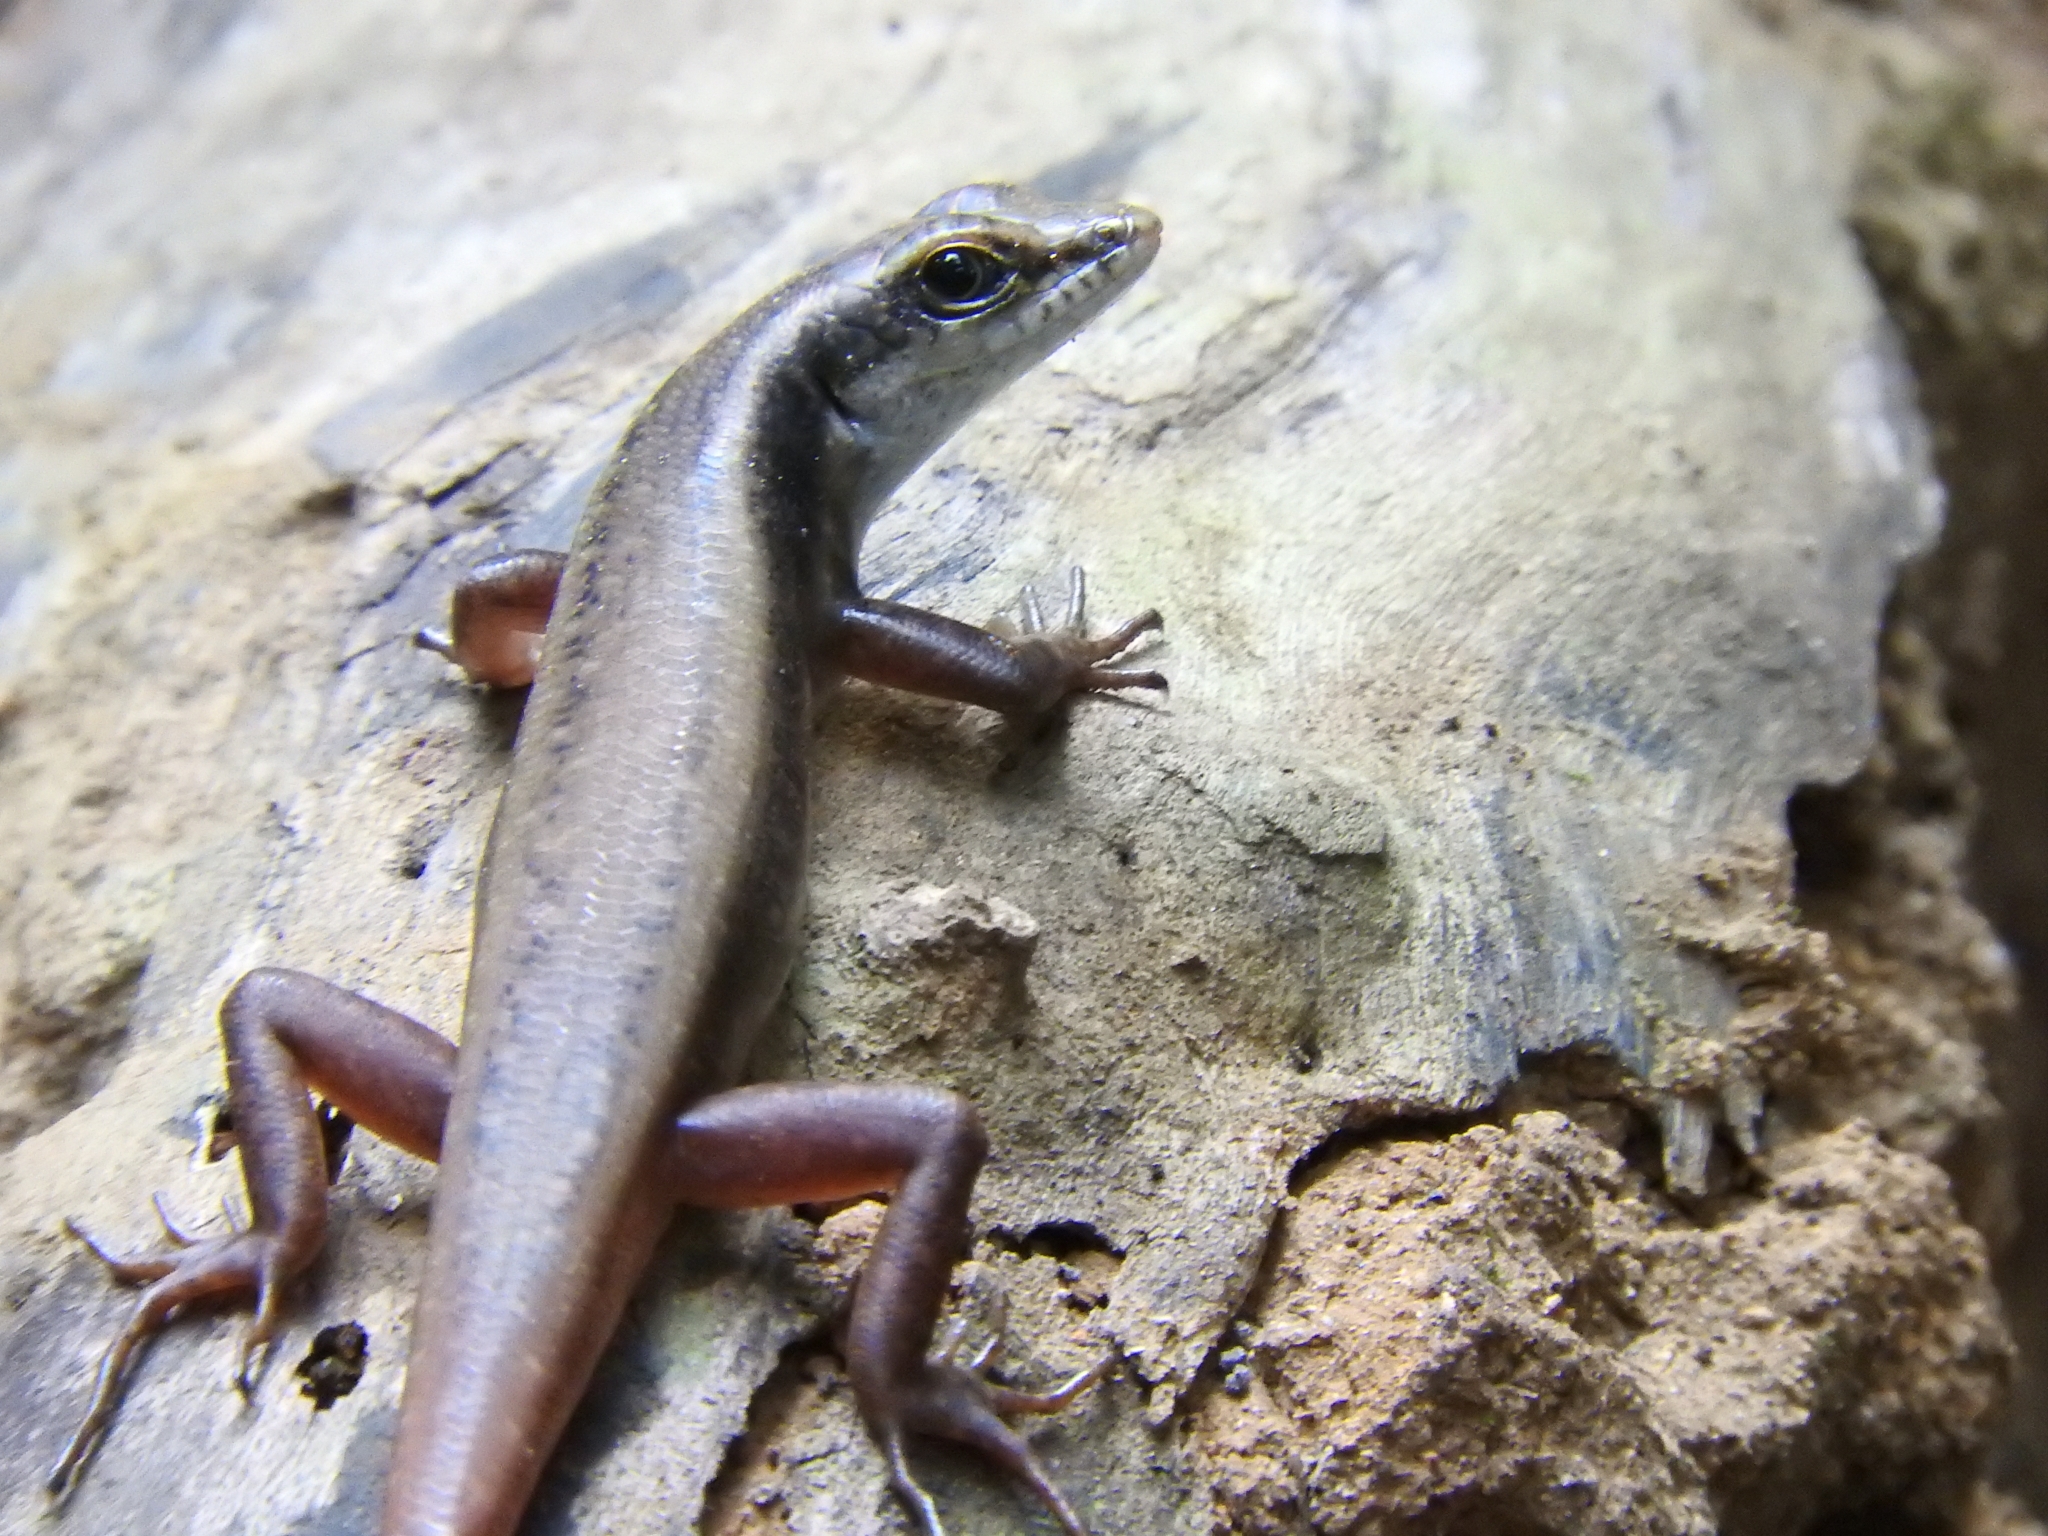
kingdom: Animalia
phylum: Chordata
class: Squamata
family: Scincidae
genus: Sphenomorphus
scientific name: Sphenomorphus dussumieri
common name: Dussumier's forest skink
